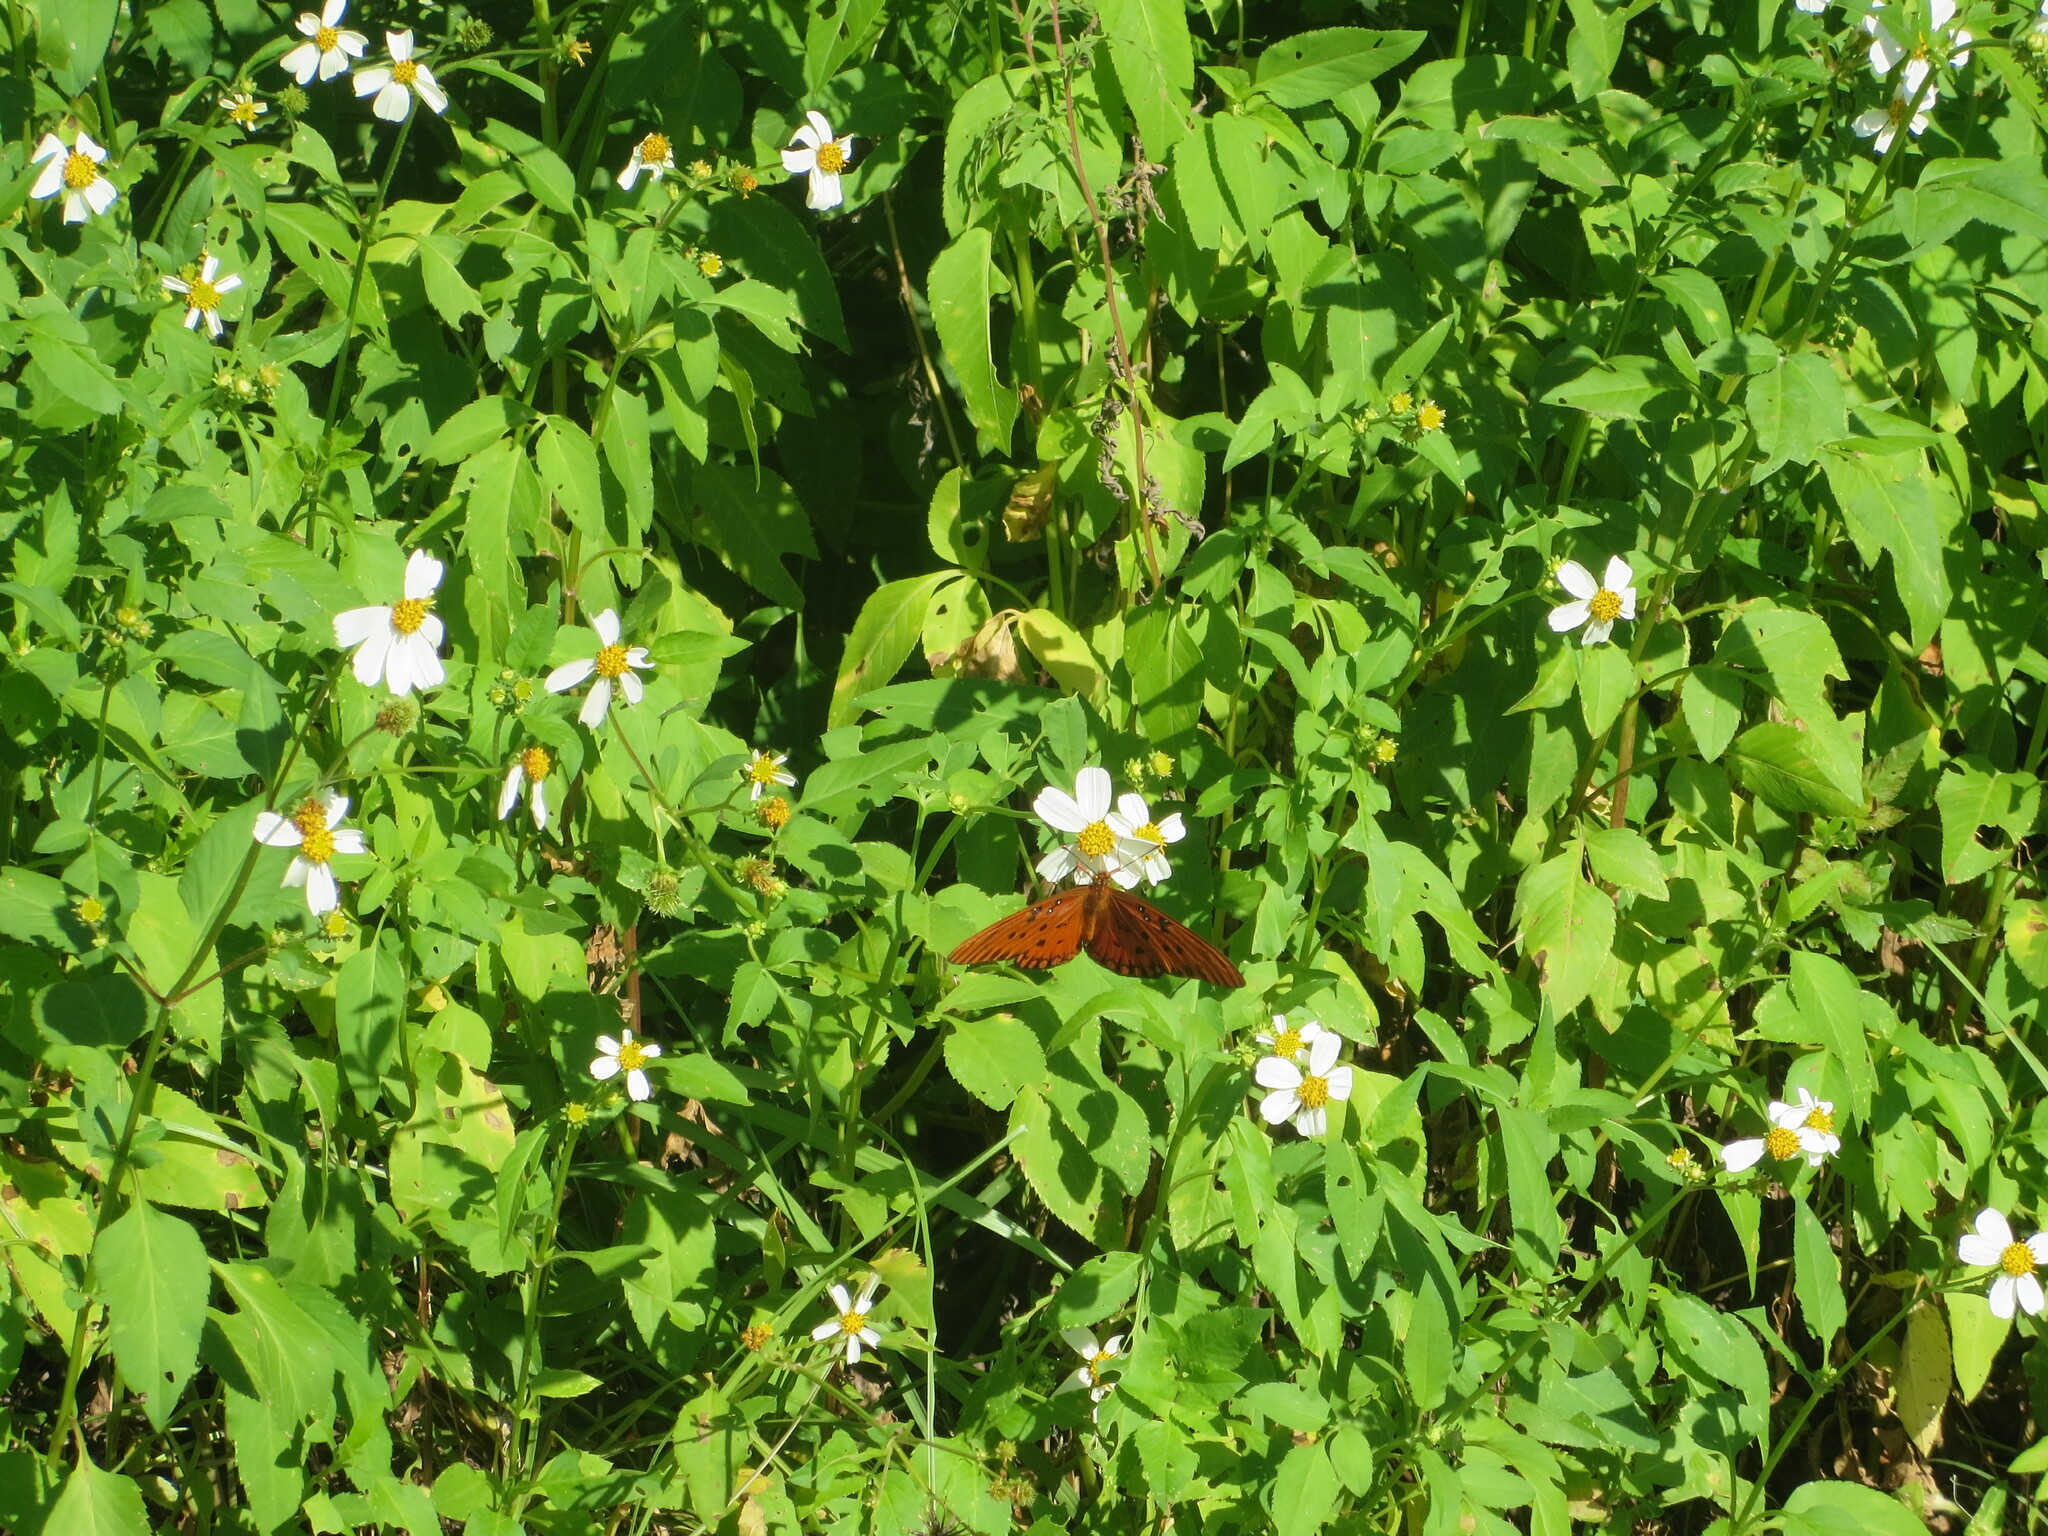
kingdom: Animalia
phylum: Arthropoda
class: Insecta
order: Lepidoptera
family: Nymphalidae
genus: Dione
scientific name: Dione vanillae
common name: Gulf fritillary
